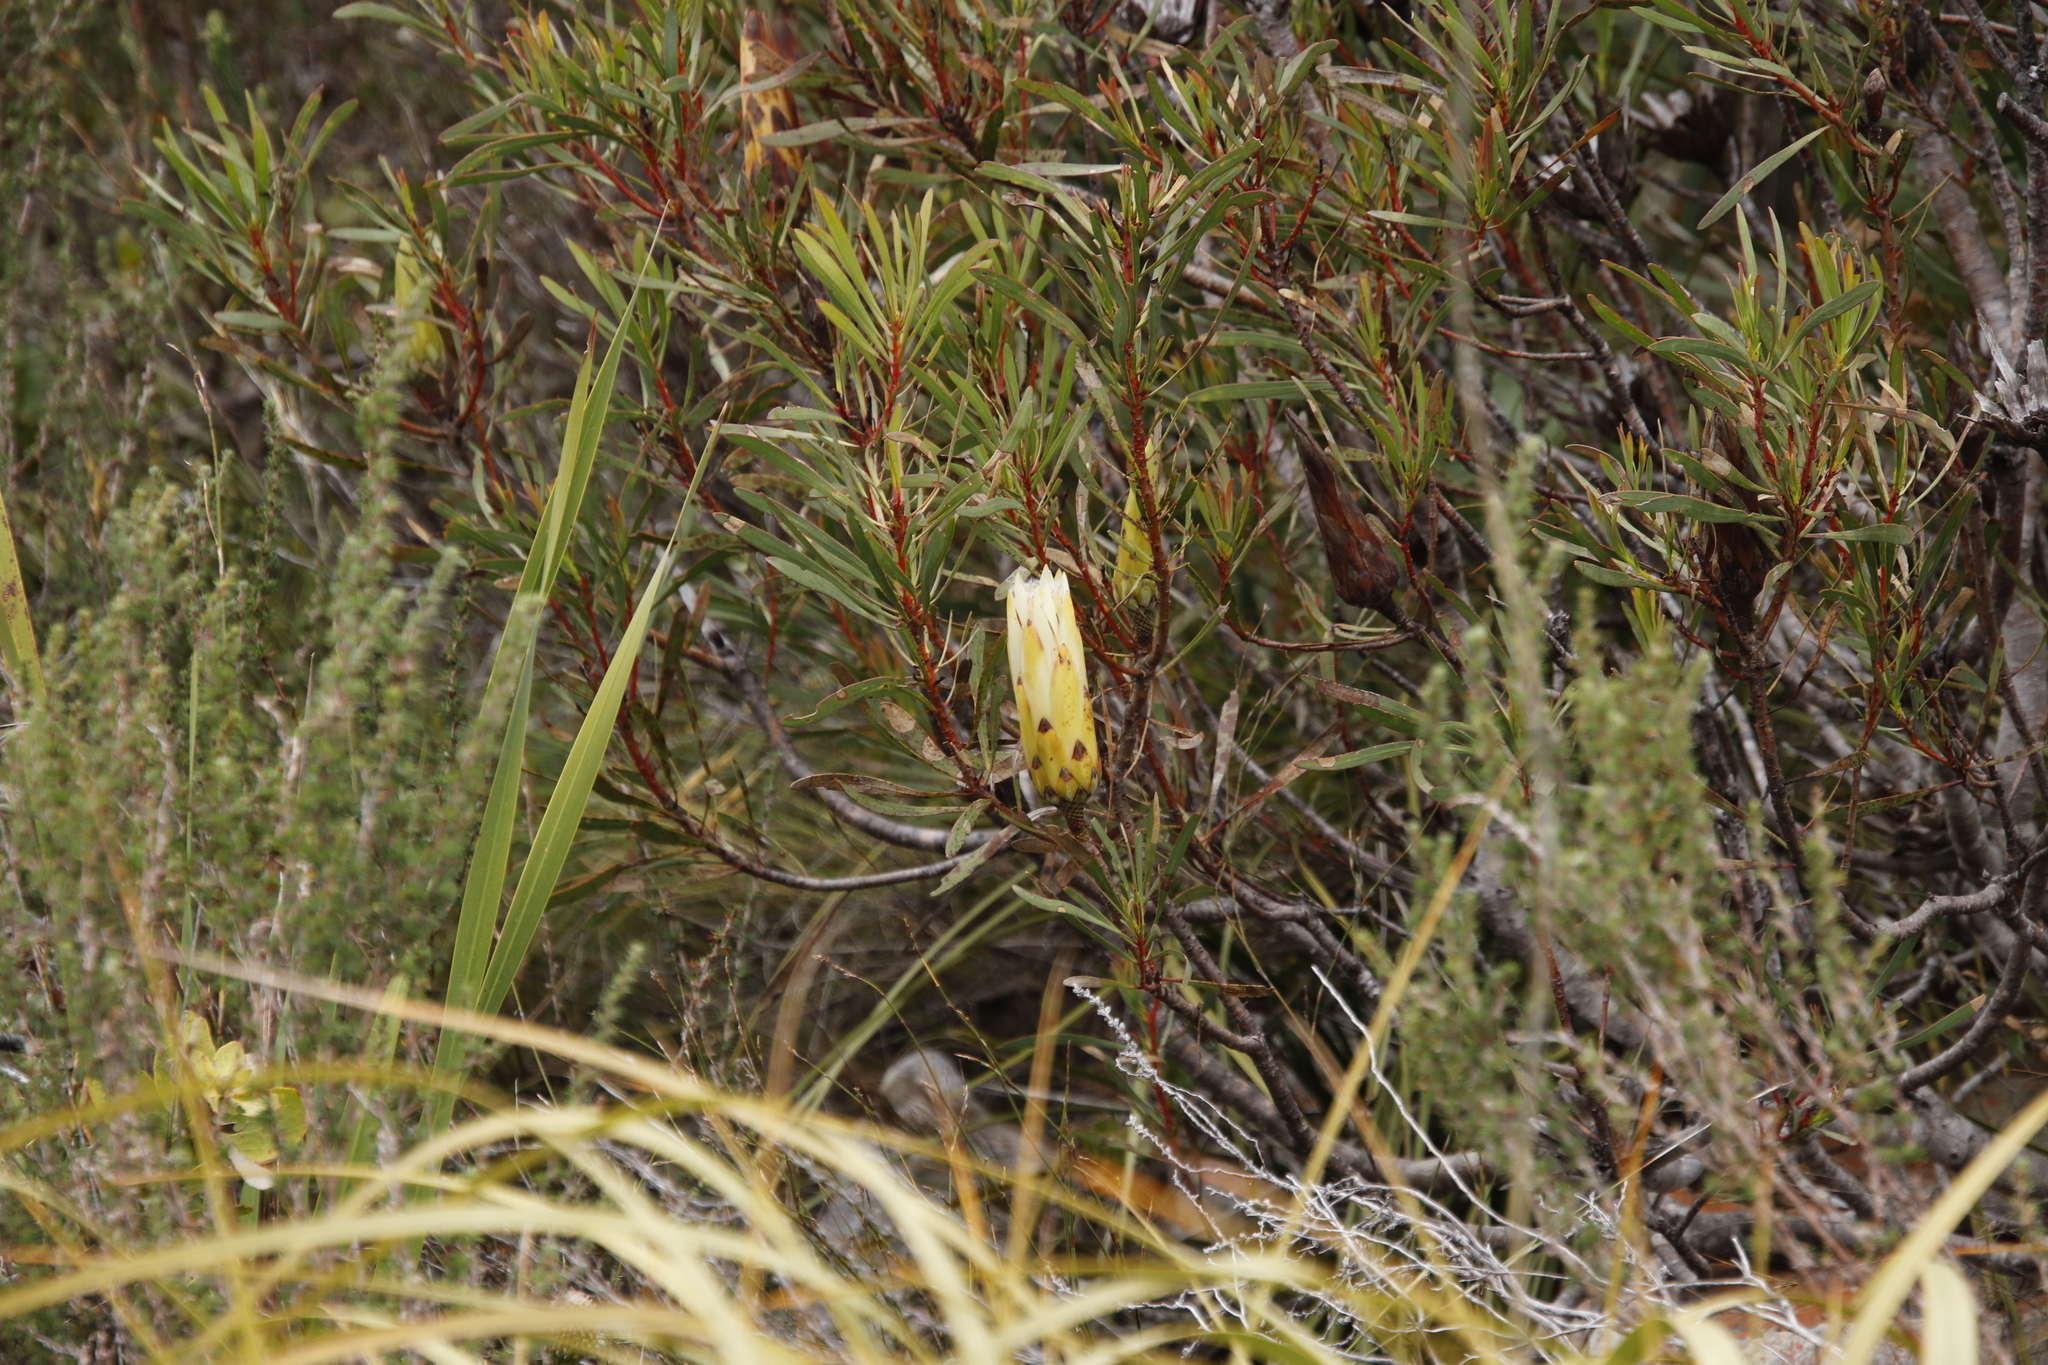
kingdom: Plantae
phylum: Tracheophyta
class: Magnoliopsida
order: Proteales
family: Proteaceae
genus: Protea
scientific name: Protea repens
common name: Sugarbush
